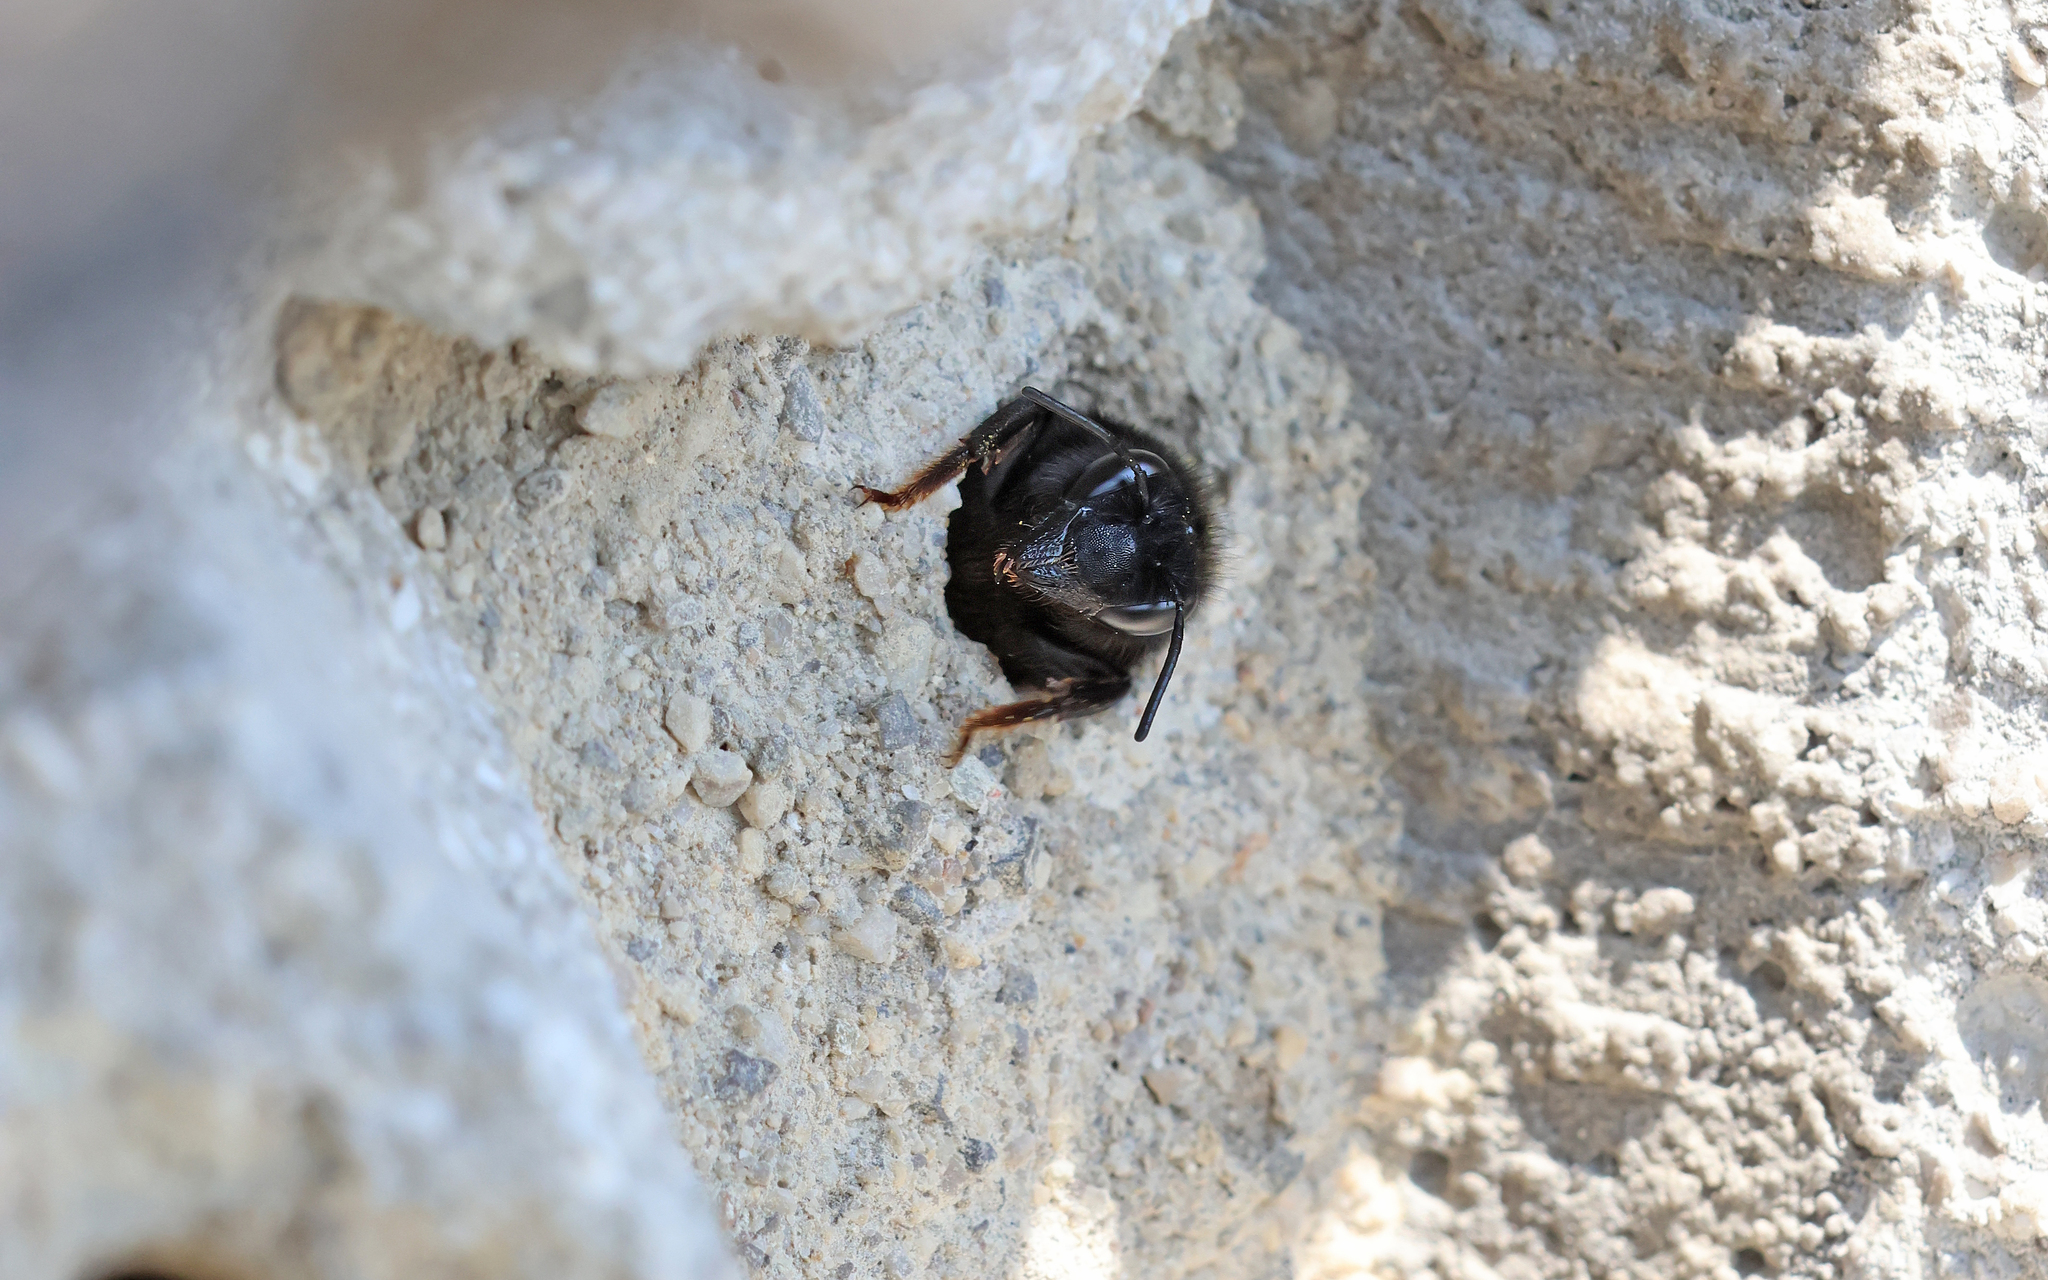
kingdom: Animalia
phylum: Arthropoda
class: Insecta
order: Hymenoptera
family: Megachilidae
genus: Megachile
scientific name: Megachile parietina
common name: Black mud bee
